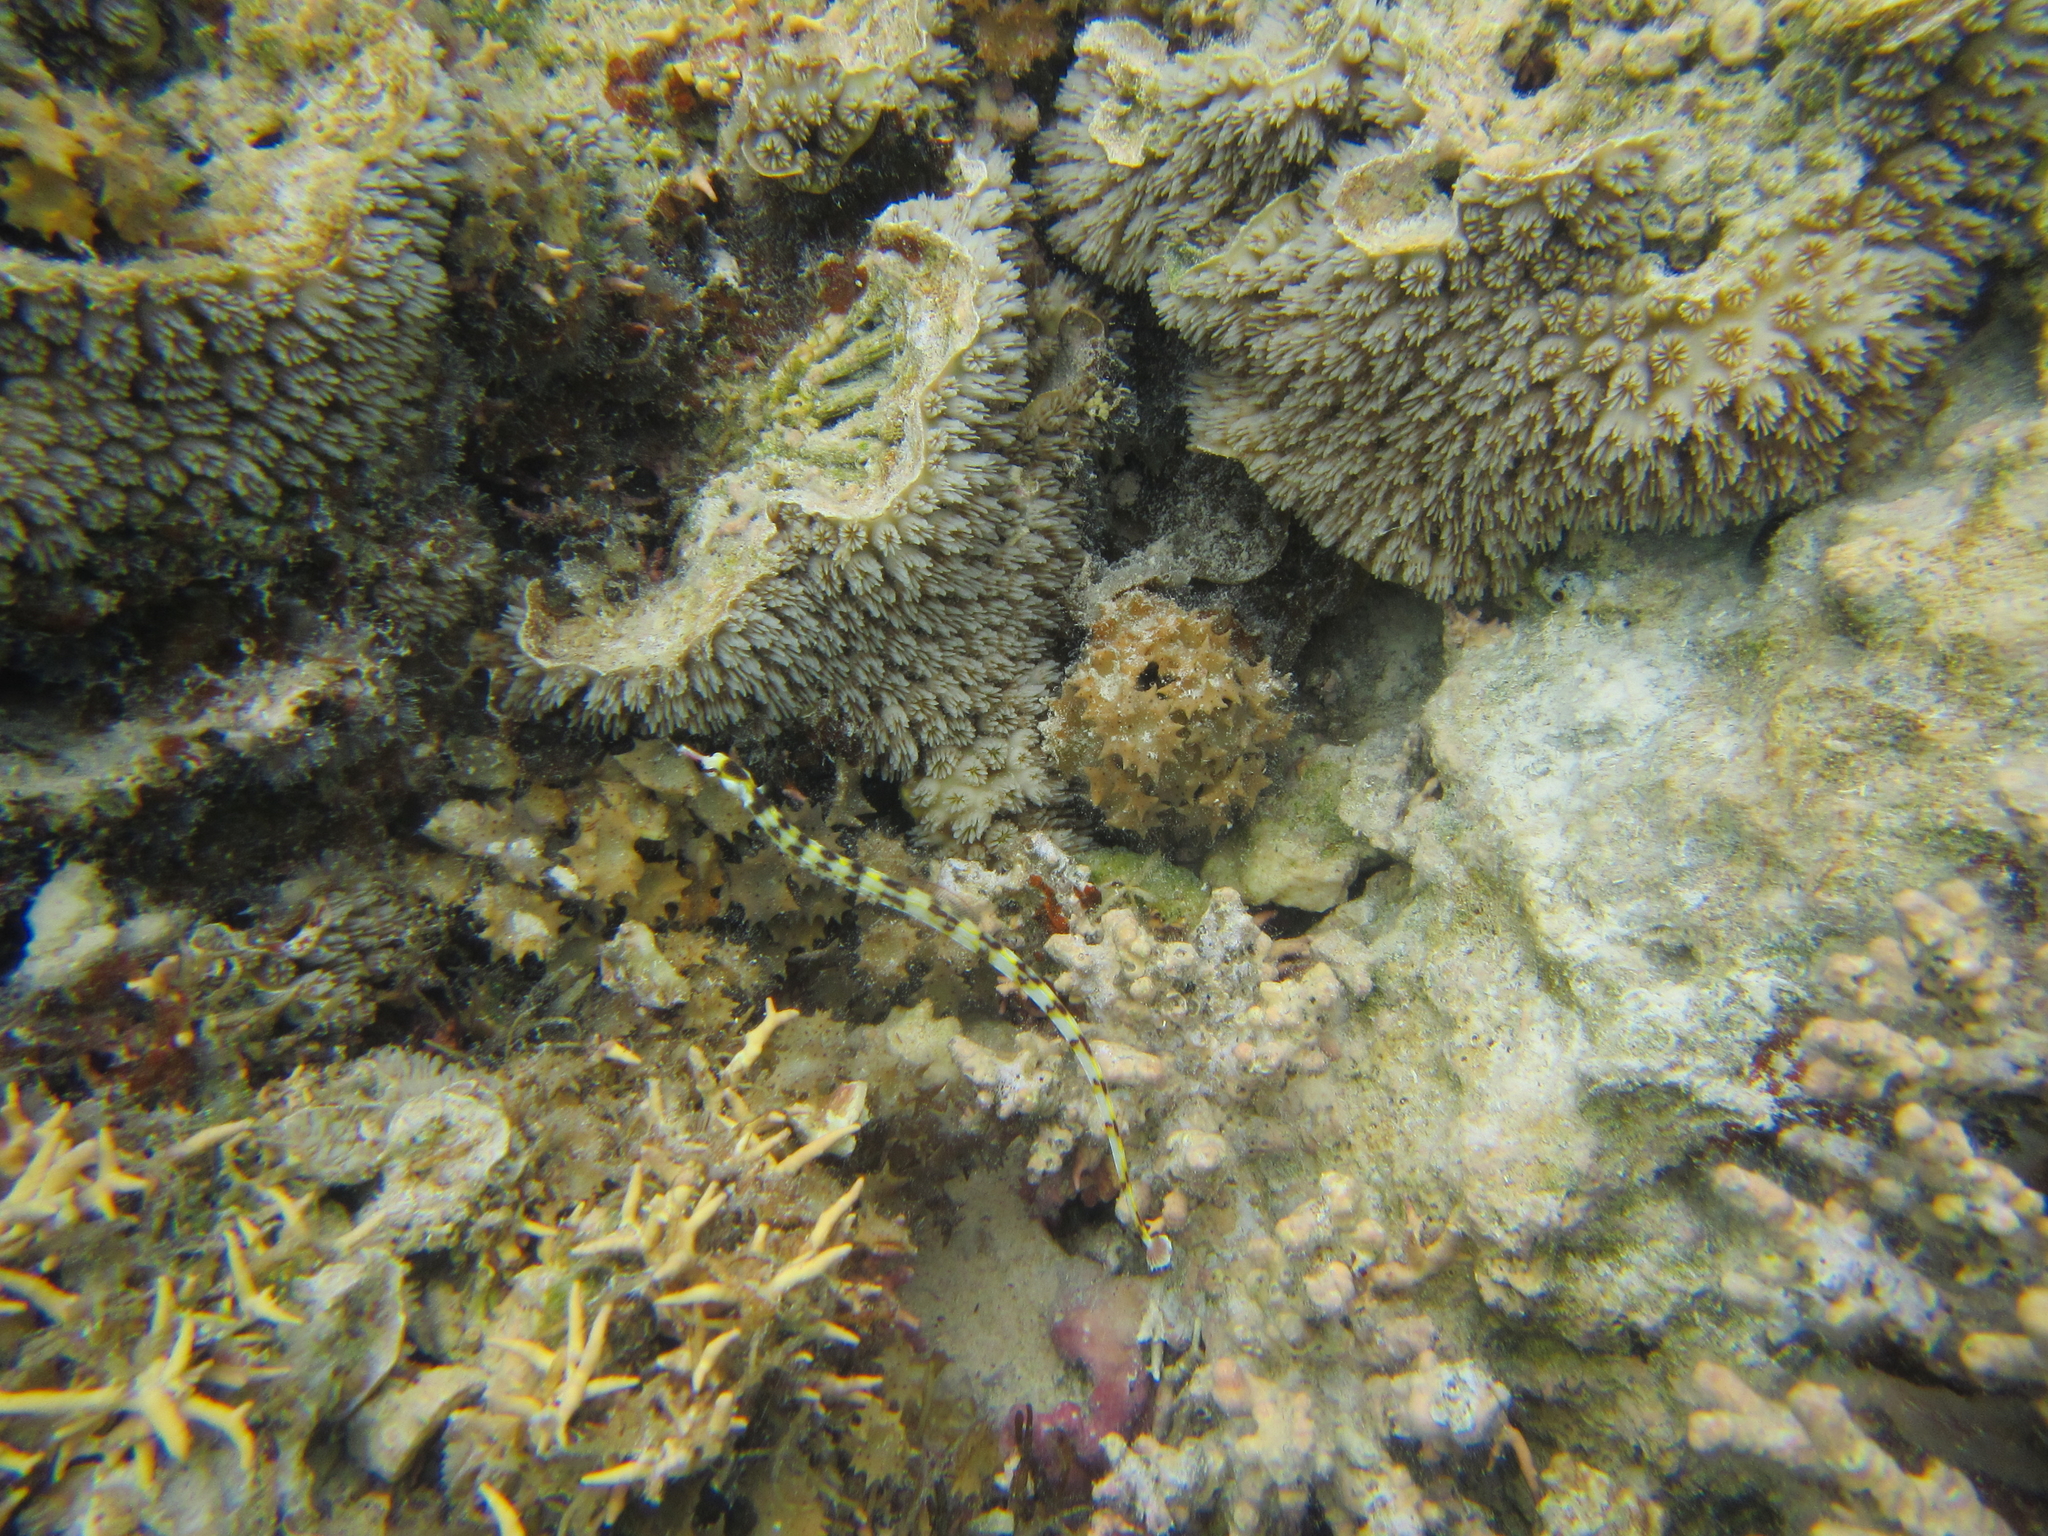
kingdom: Animalia
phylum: Chordata
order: Syngnathiformes
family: Syngnathidae
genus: Corythoichthys
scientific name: Corythoichthys haematopterus
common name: Bloodspot pipefish
